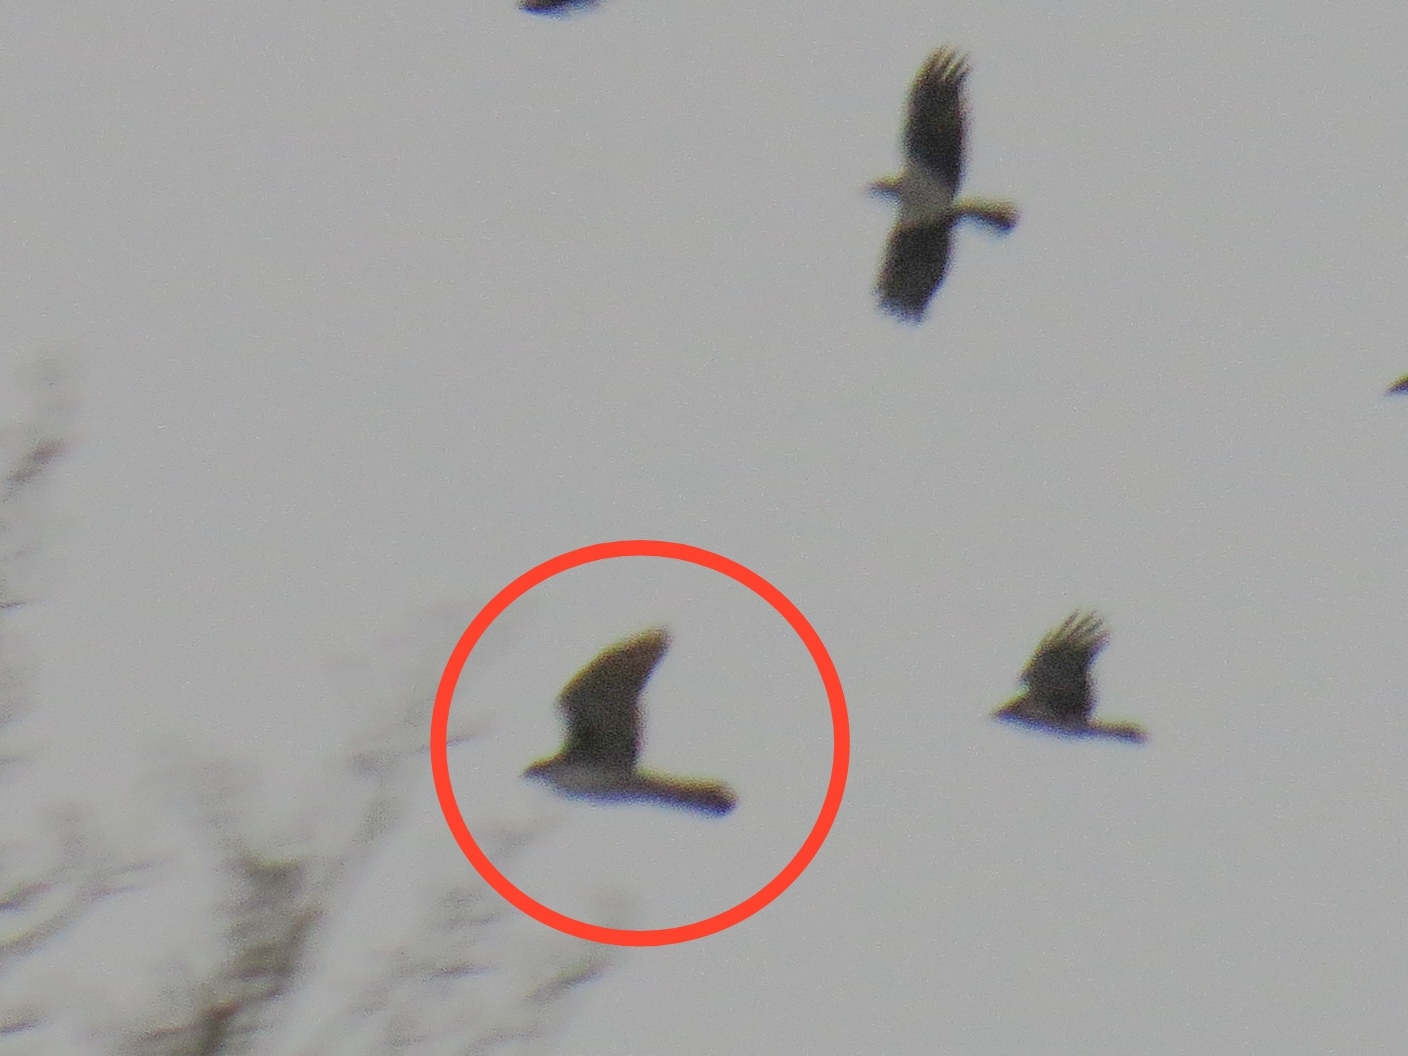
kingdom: Animalia
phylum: Chordata
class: Aves
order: Accipitriformes
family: Accipitridae
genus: Accipiter
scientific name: Accipiter gentilis
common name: Northern goshawk
